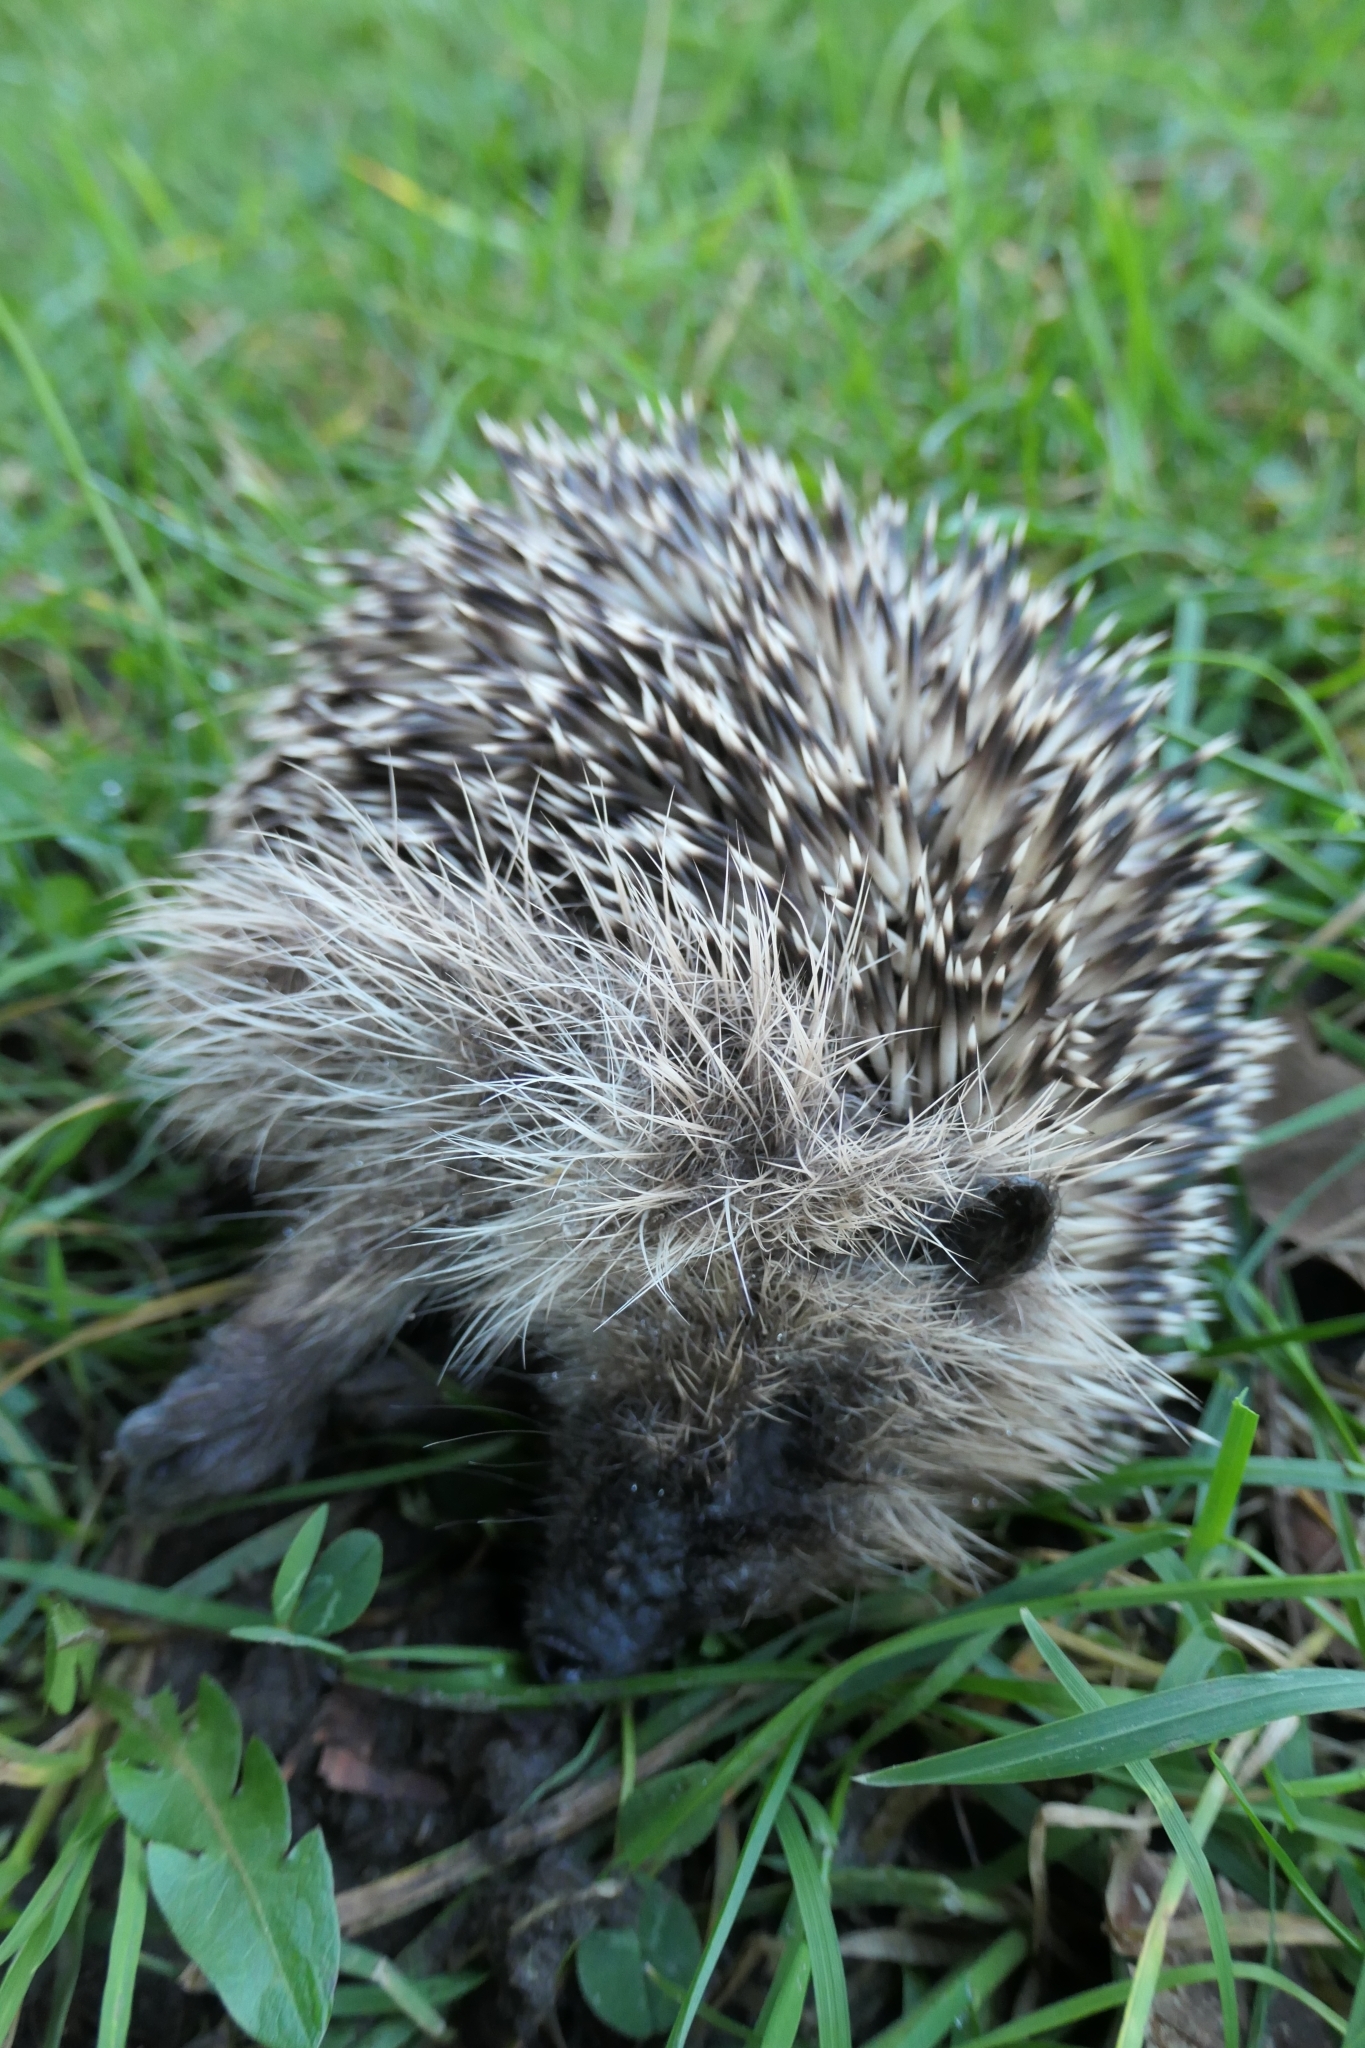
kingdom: Animalia
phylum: Chordata
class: Mammalia
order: Erinaceomorpha
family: Erinaceidae
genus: Erinaceus
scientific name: Erinaceus europaeus
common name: West european hedgehog
